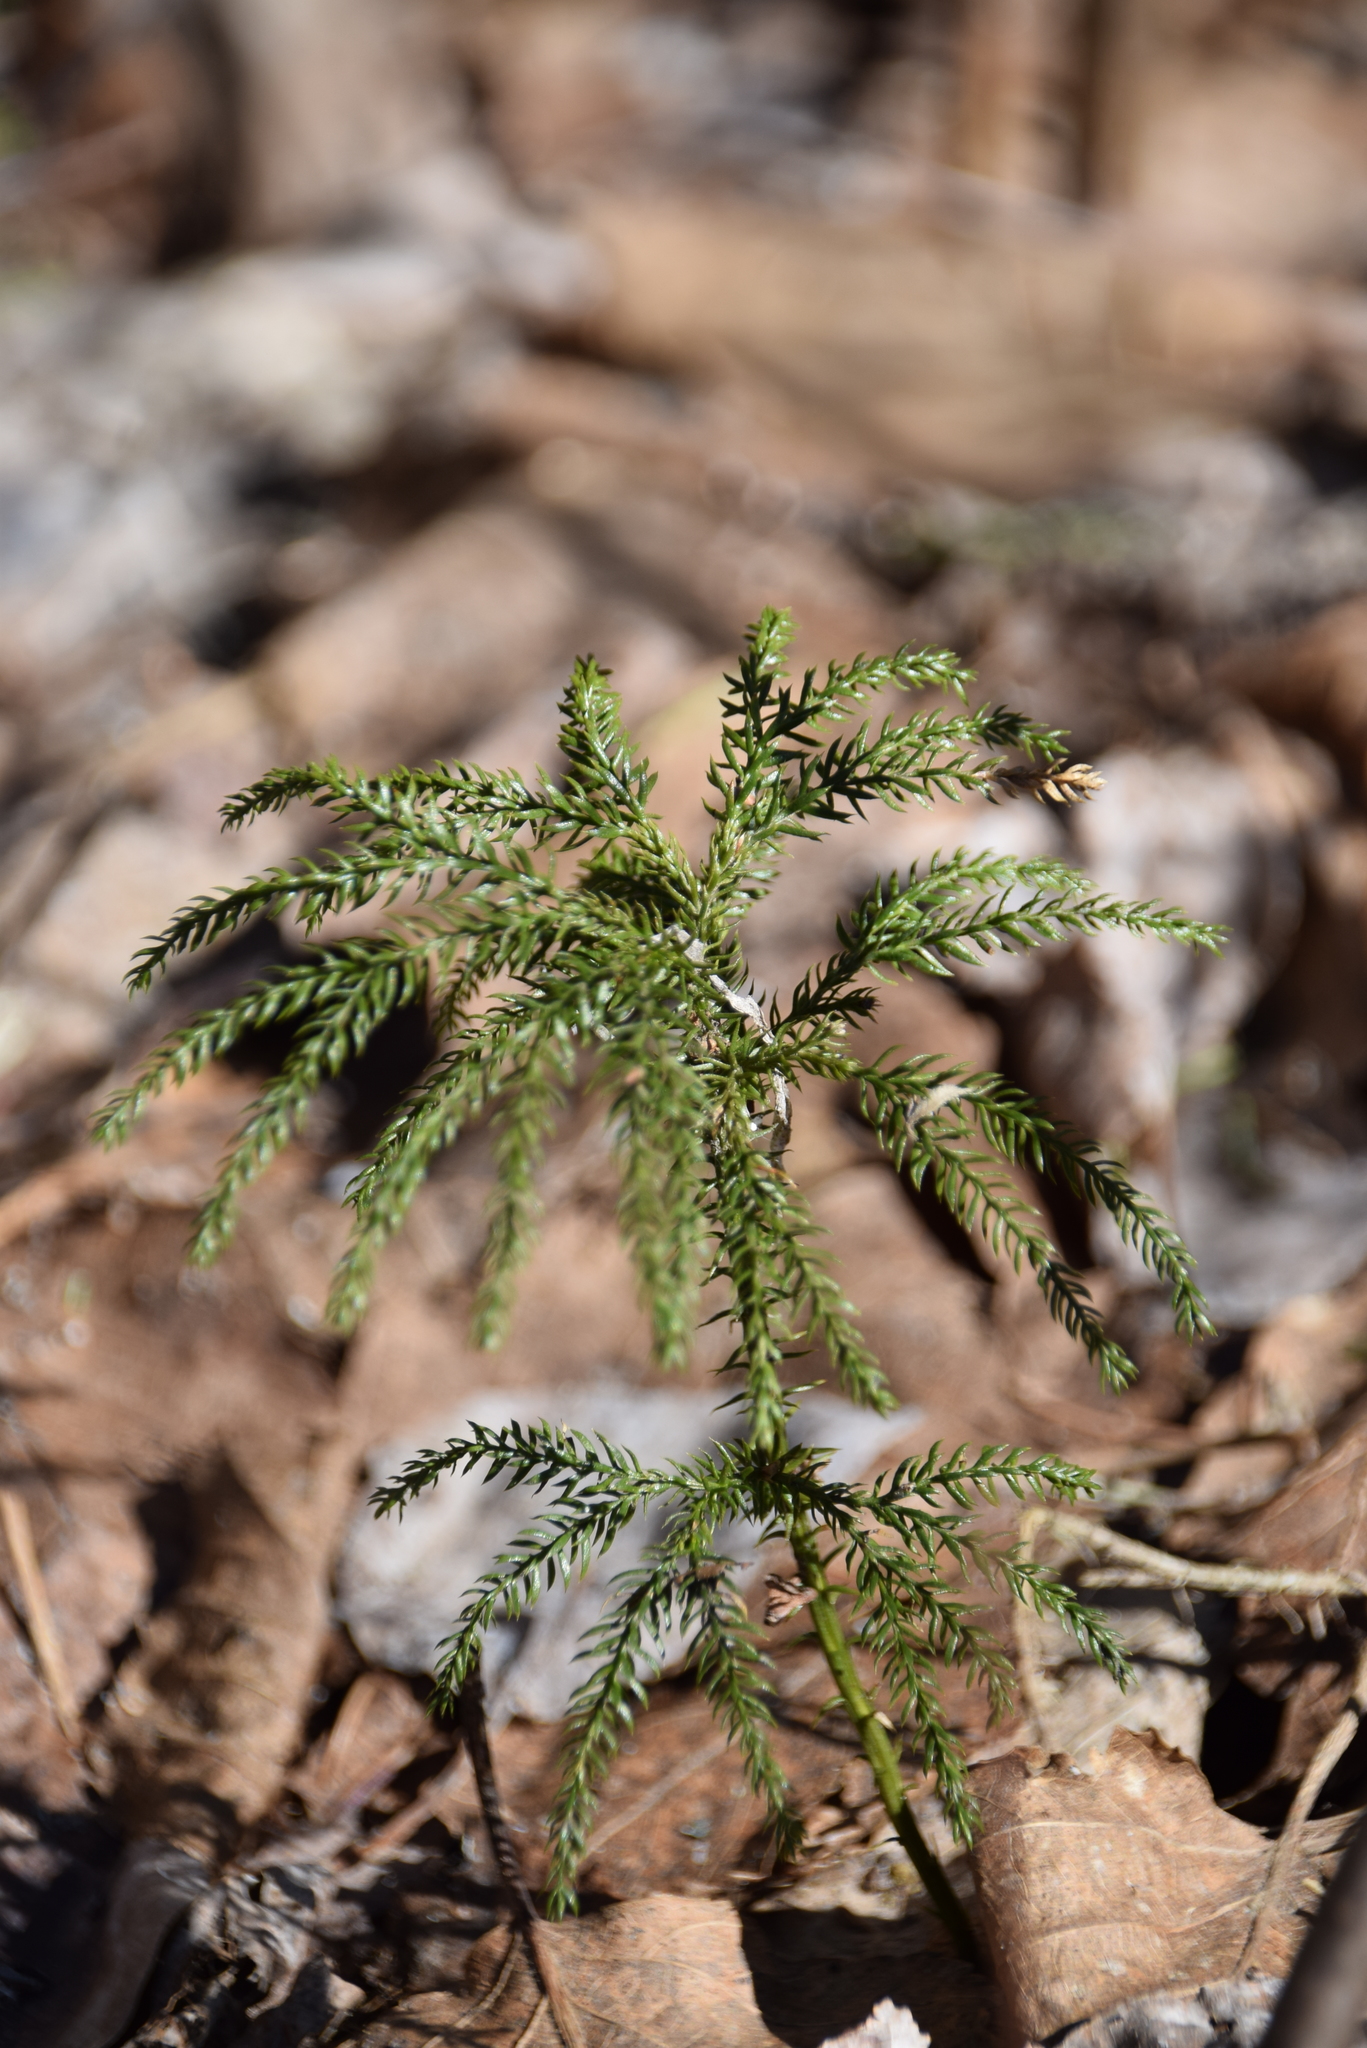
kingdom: Plantae
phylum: Tracheophyta
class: Lycopodiopsida
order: Lycopodiales
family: Lycopodiaceae
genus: Dendrolycopodium
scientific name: Dendrolycopodium dendroideum
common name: Northern tree-clubmoss
